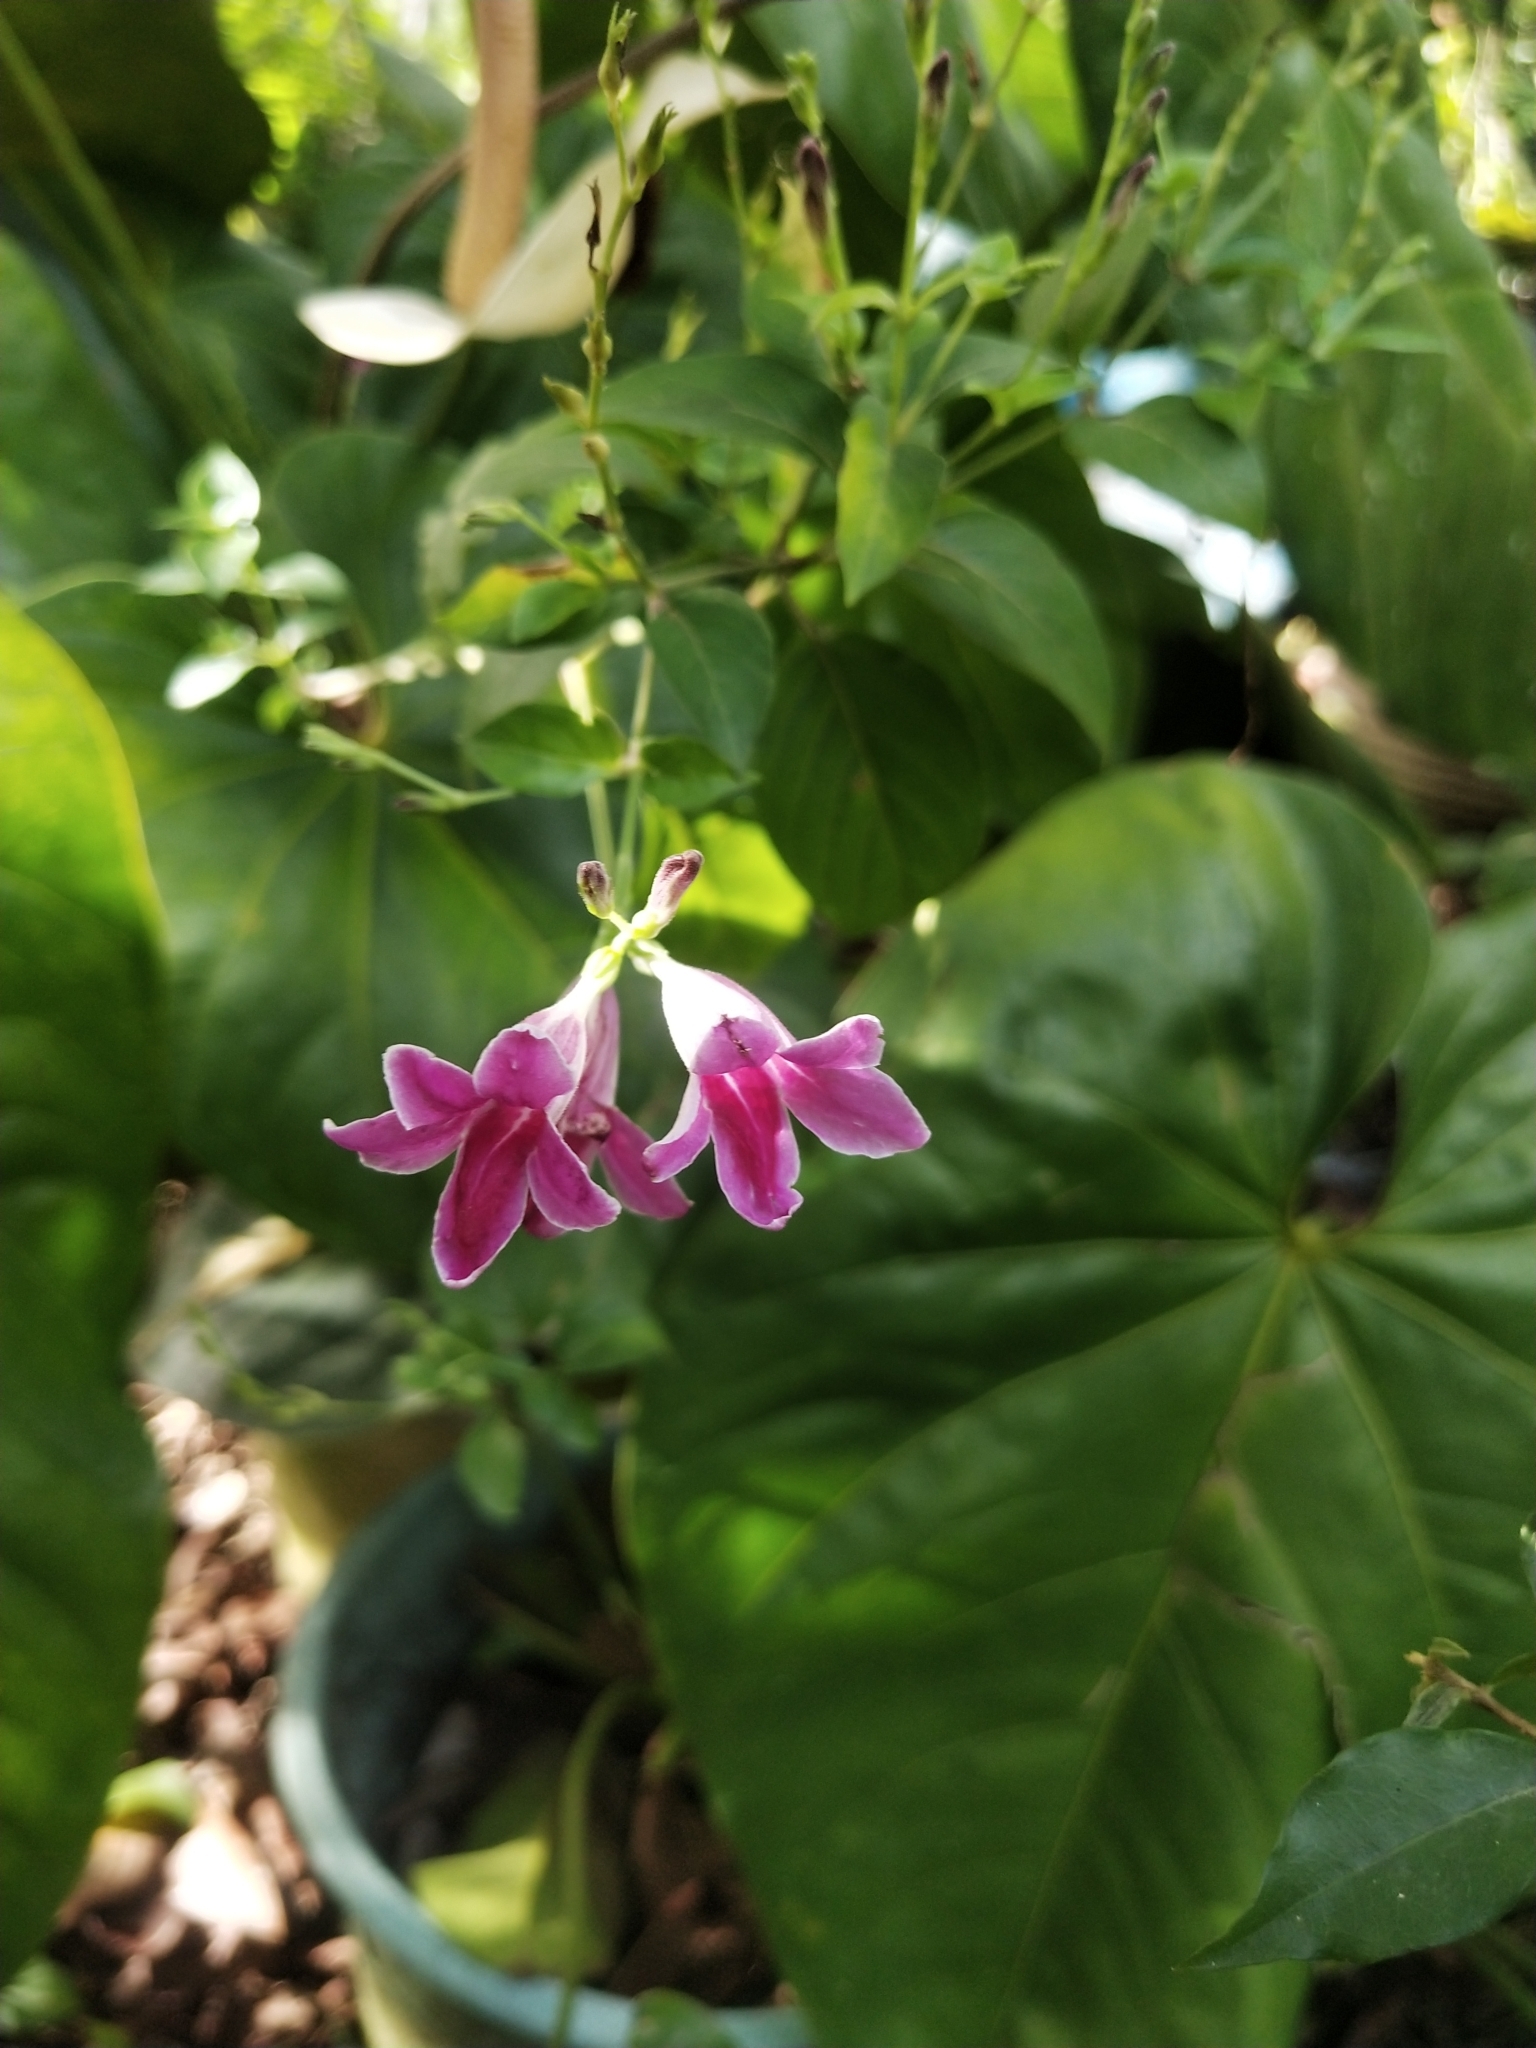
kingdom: Plantae
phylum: Tracheophyta
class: Magnoliopsida
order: Lamiales
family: Acanthaceae
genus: Asystasia
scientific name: Asystasia nemorum
